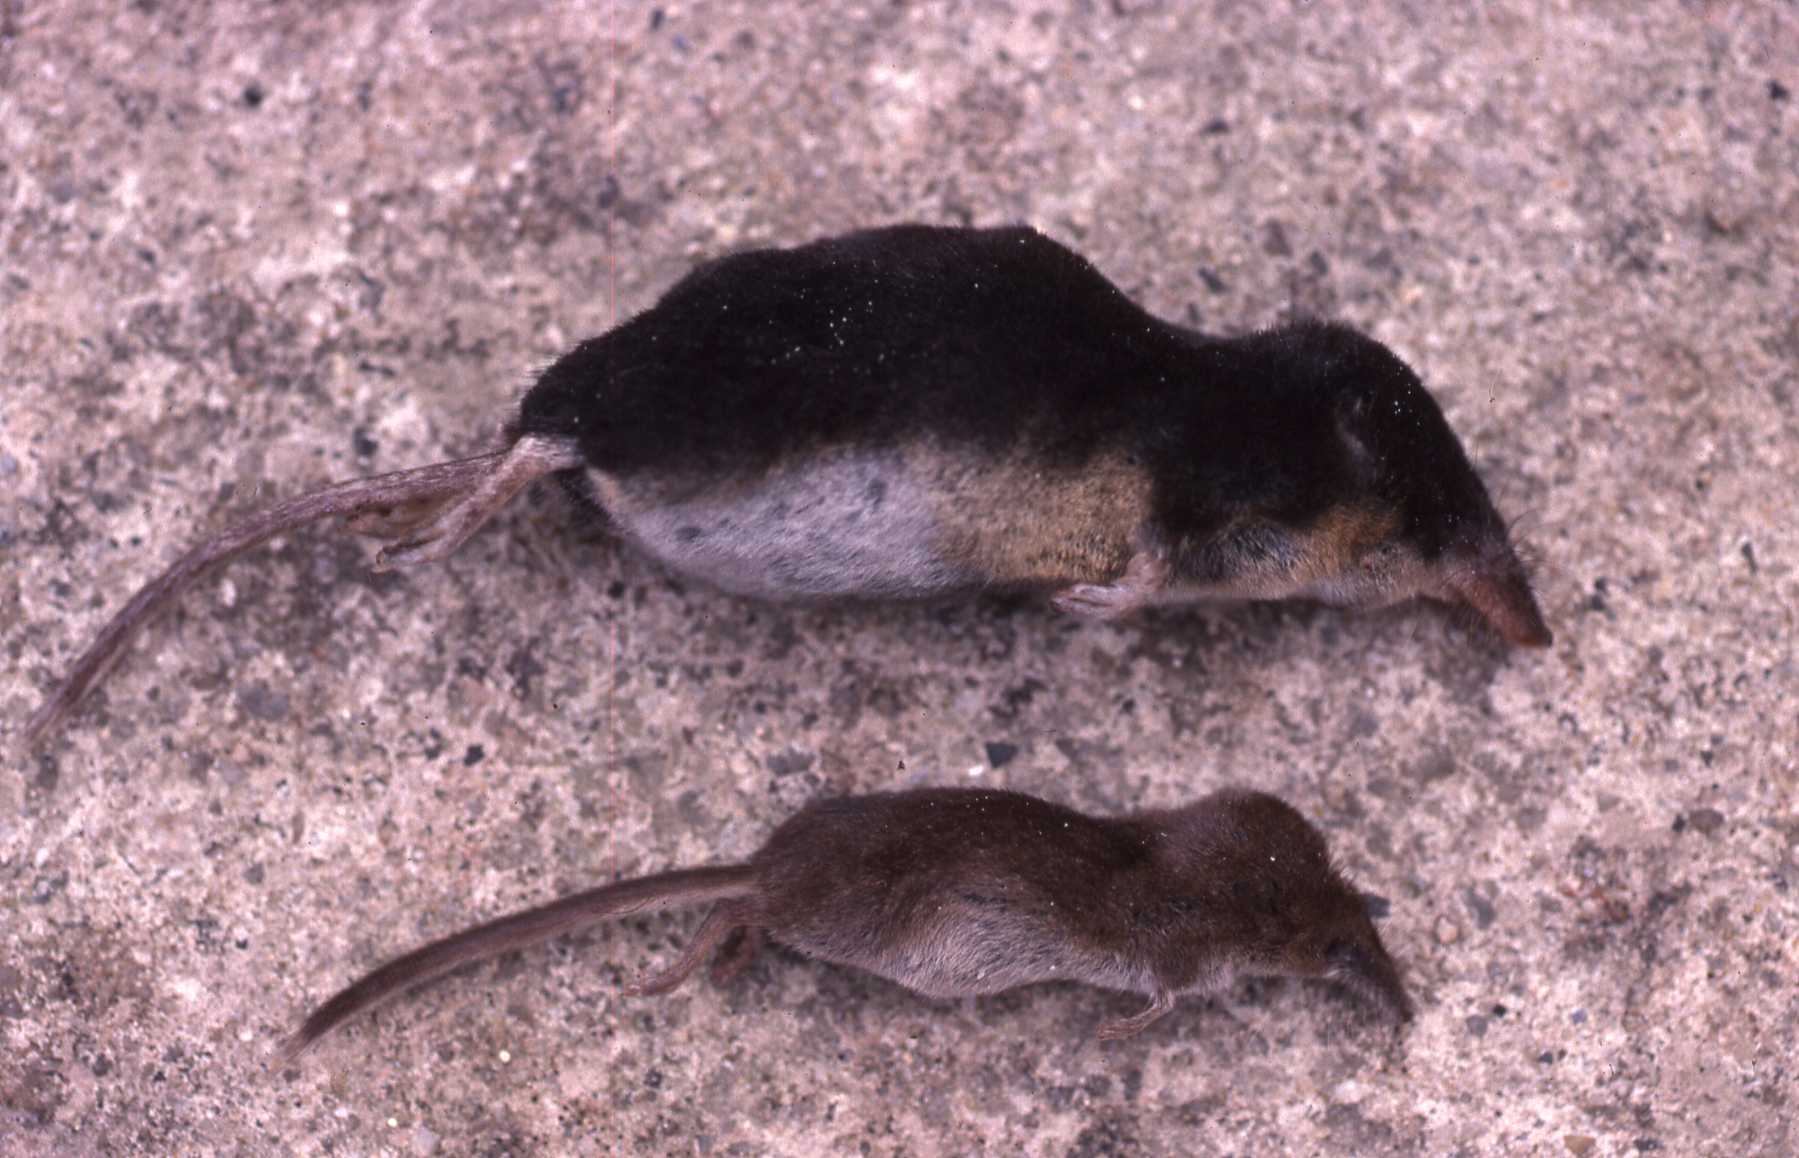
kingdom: Animalia
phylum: Chordata
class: Mammalia
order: Soricomorpha
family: Soricidae
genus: Neomys
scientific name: Neomys fodiens
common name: Eurasian water shrew
